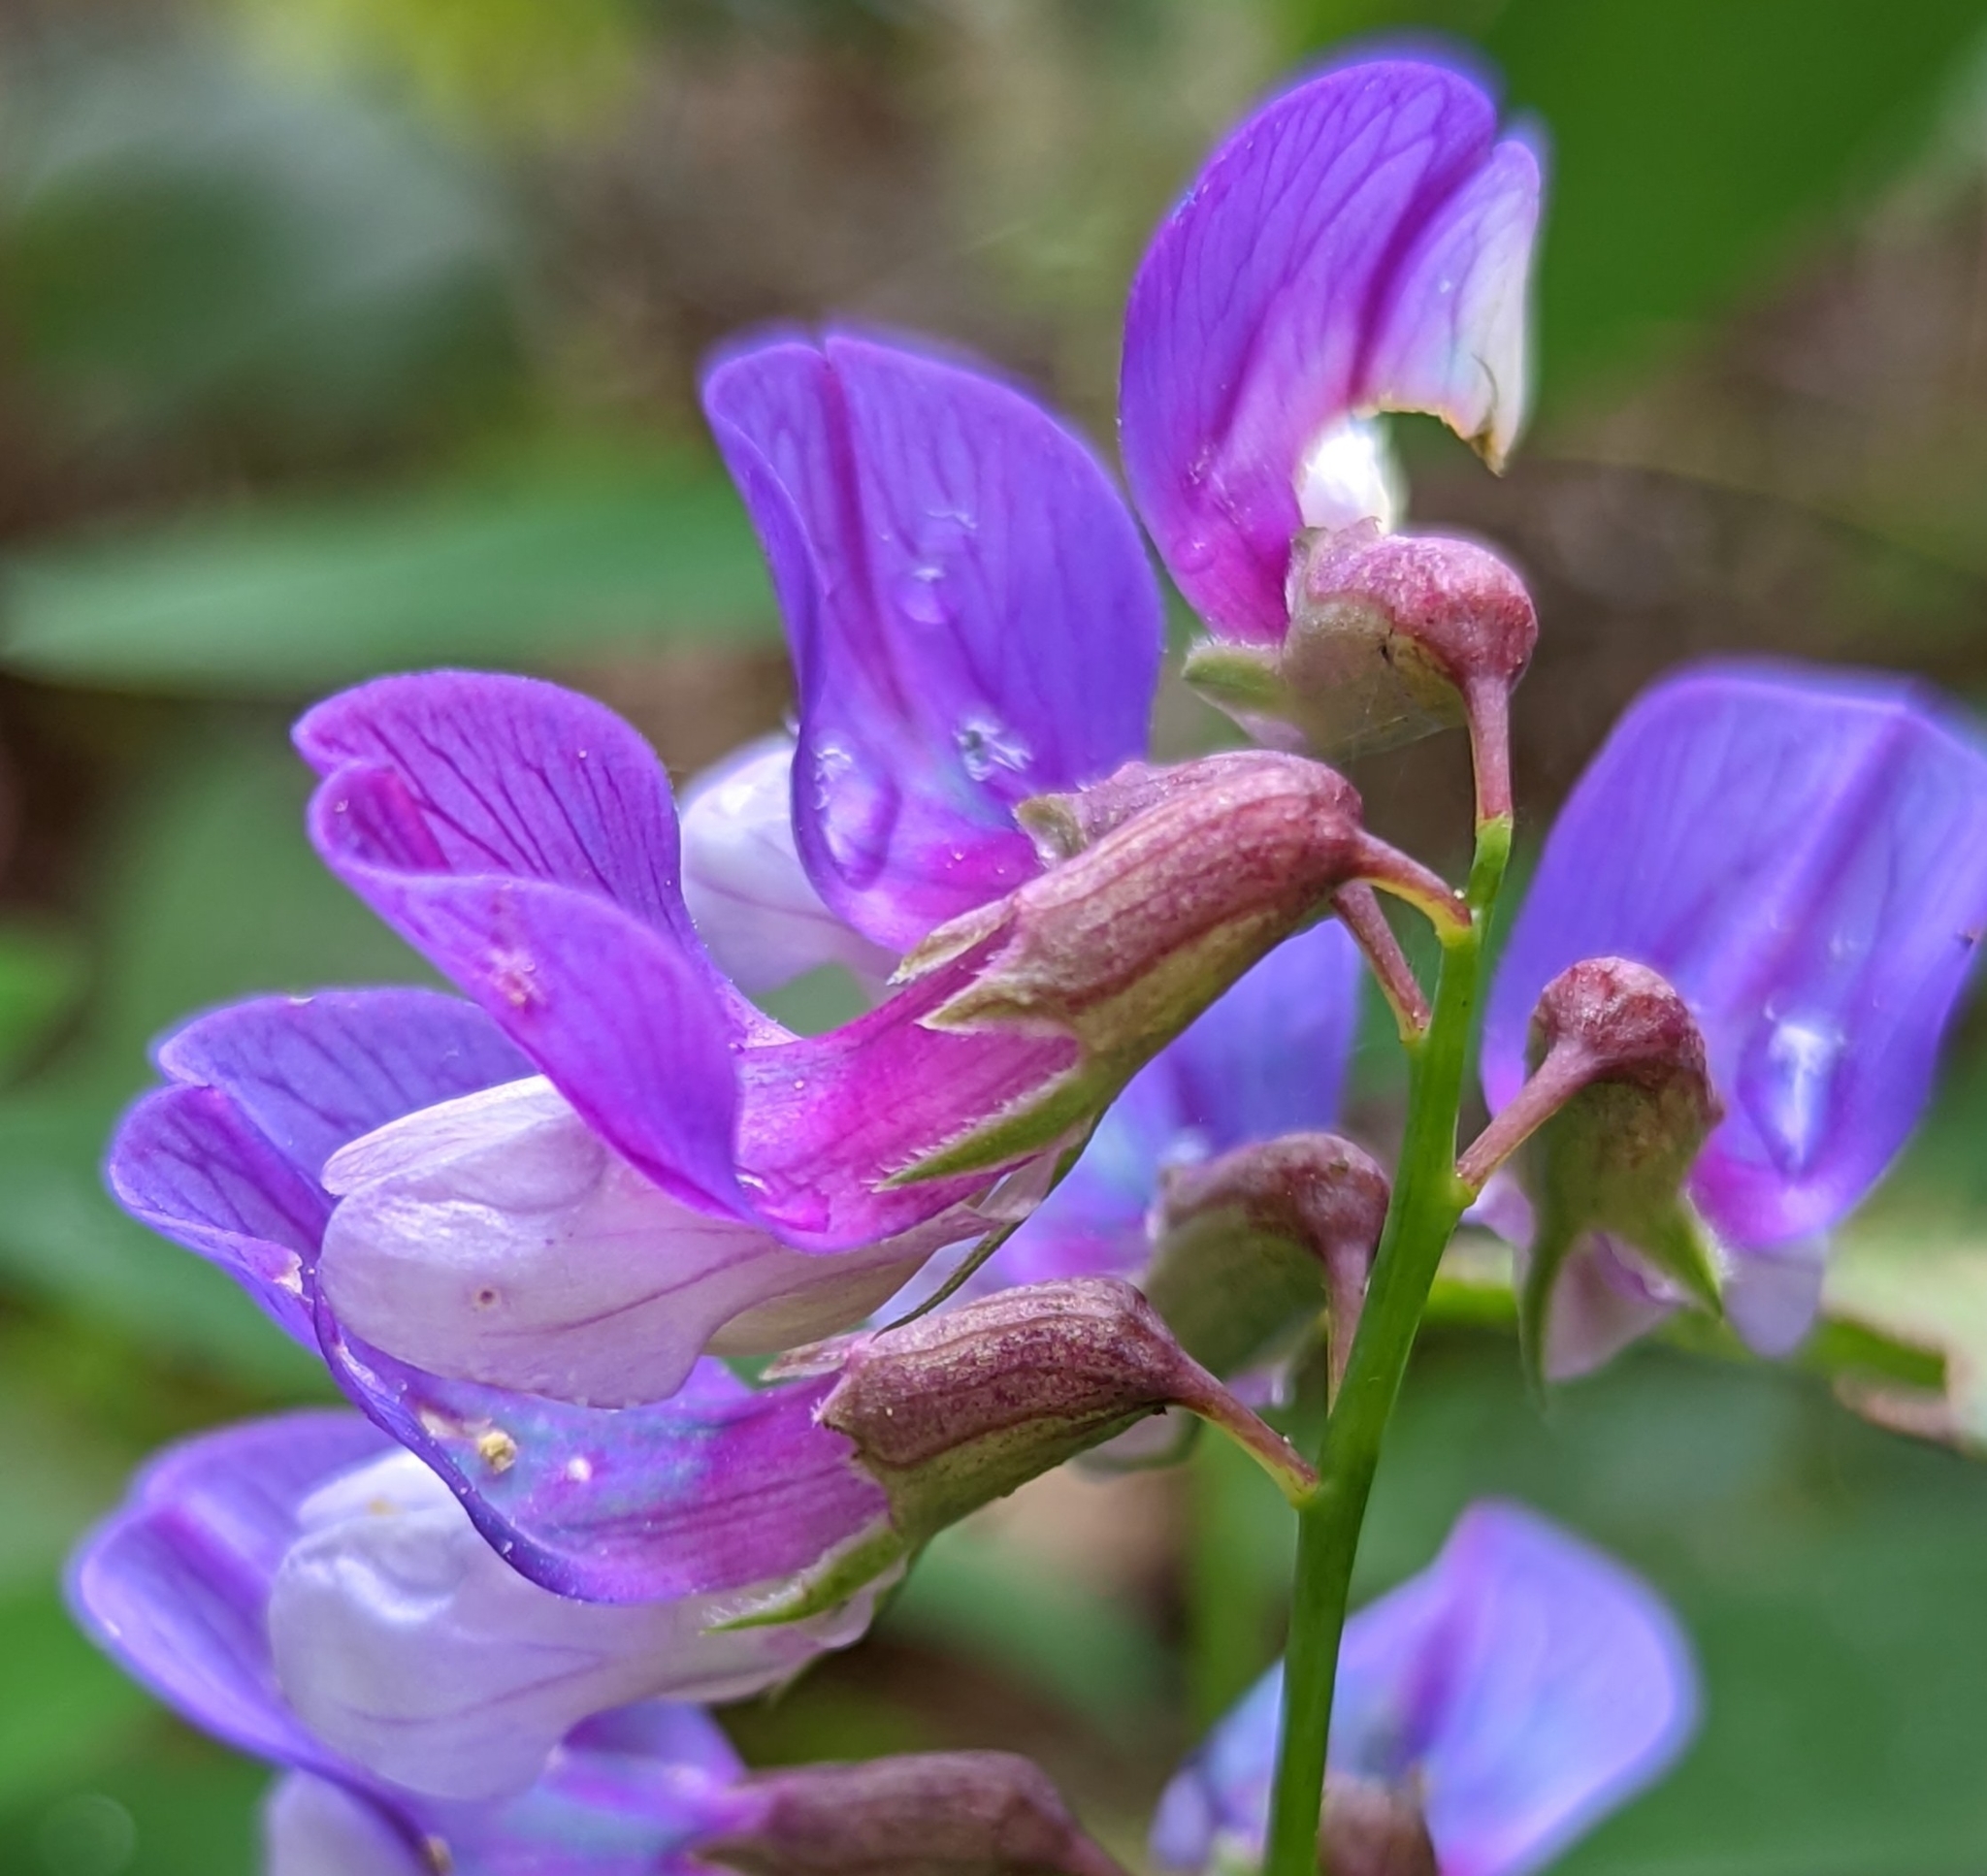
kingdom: Plantae
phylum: Tracheophyta
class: Magnoliopsida
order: Fabales
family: Fabaceae
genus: Lathyrus
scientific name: Lathyrus polyphyllus
